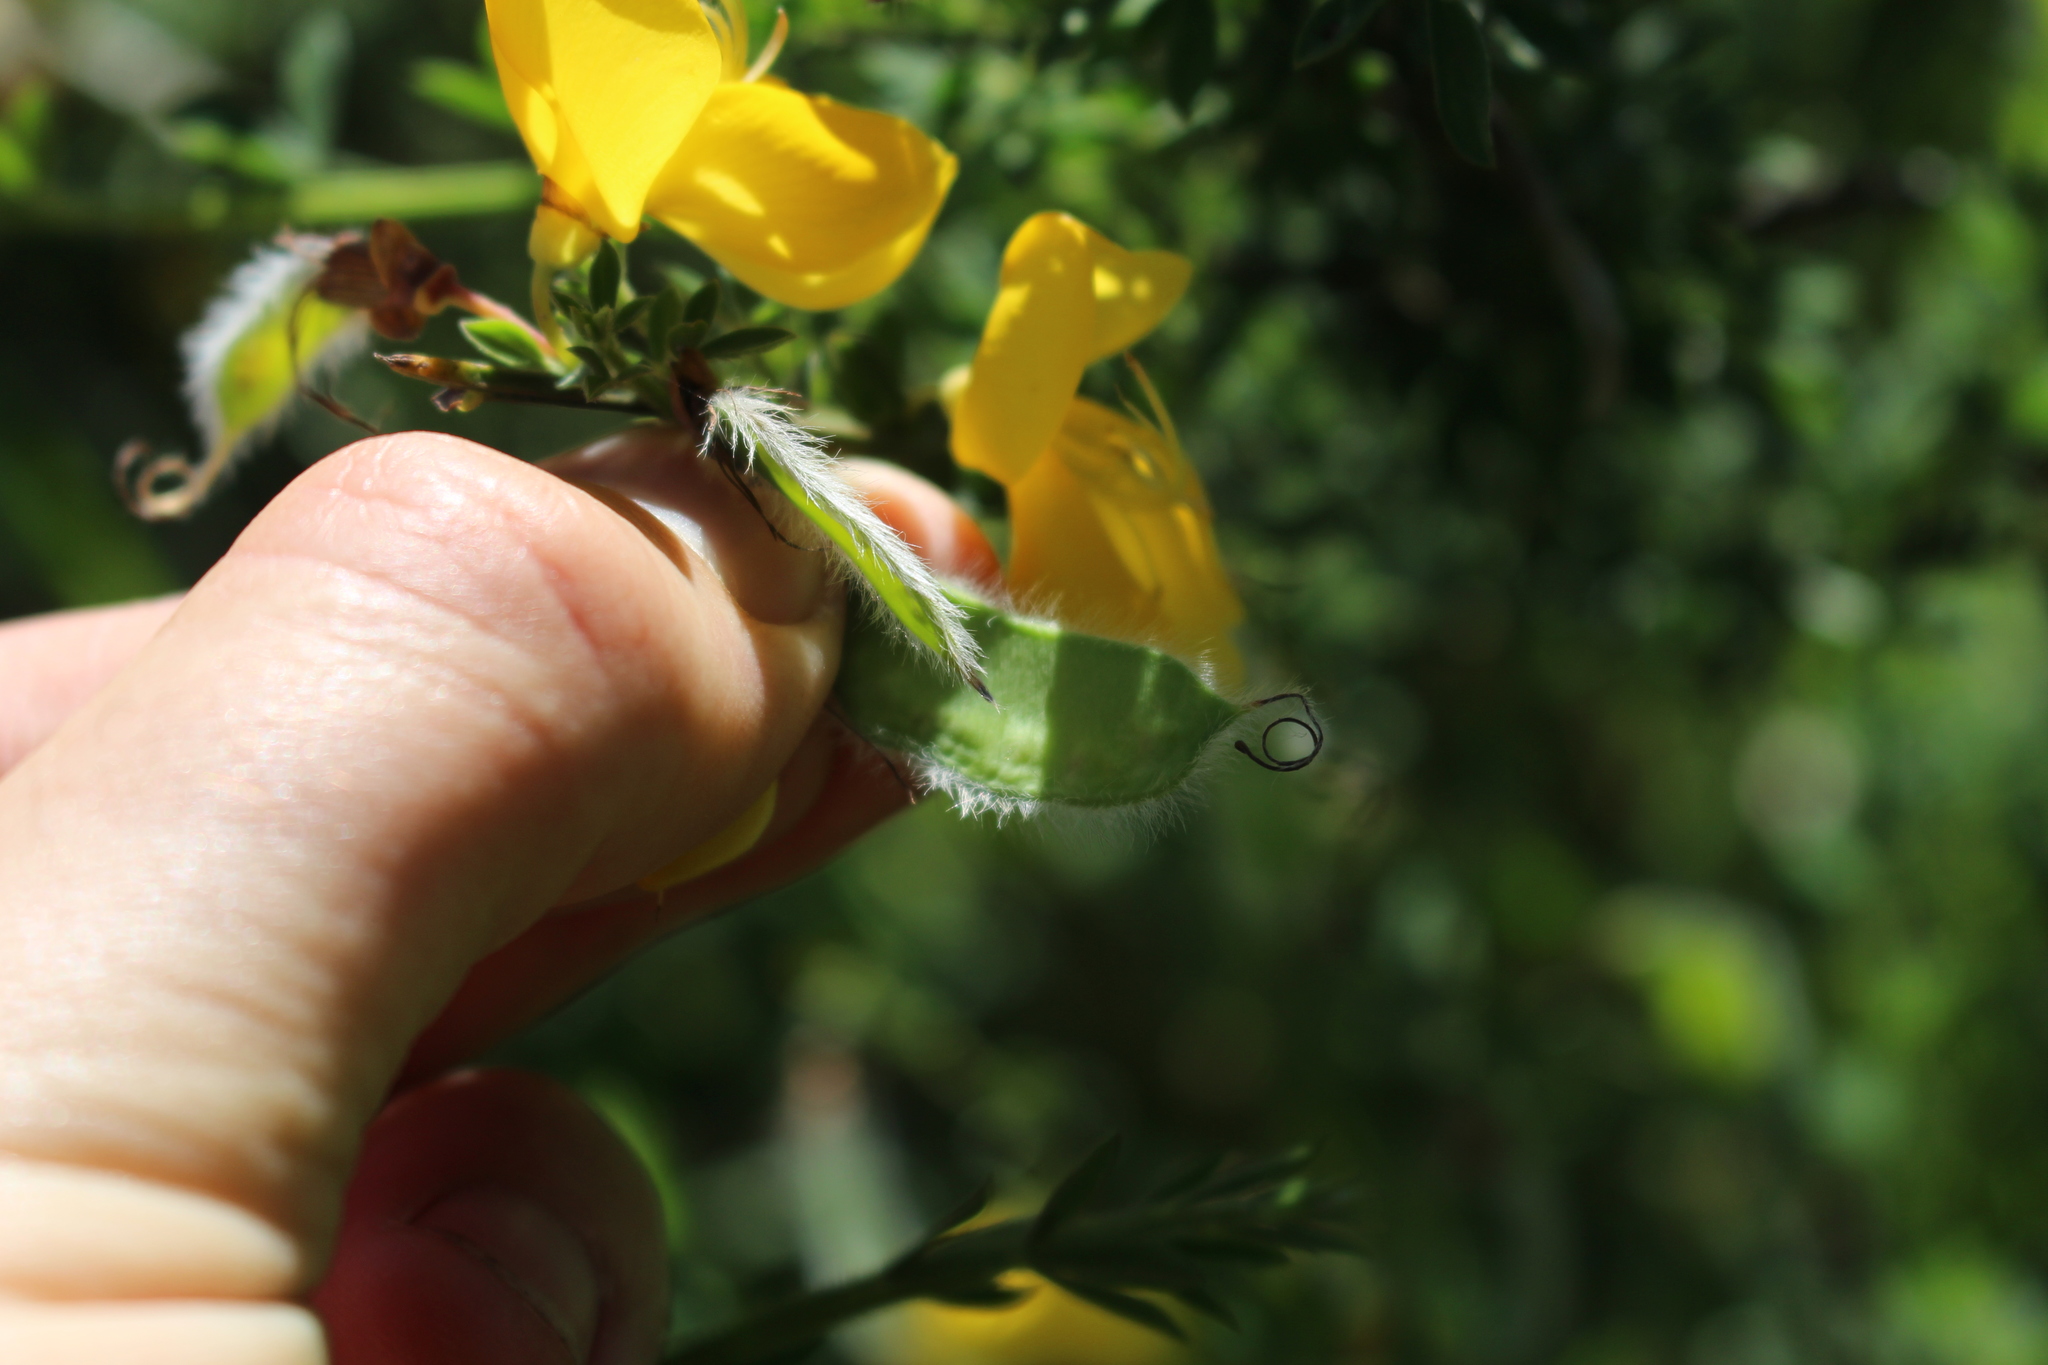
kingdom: Plantae
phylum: Tracheophyta
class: Magnoliopsida
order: Fabales
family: Fabaceae
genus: Cytisus
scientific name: Cytisus scoparius
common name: Scotch broom
